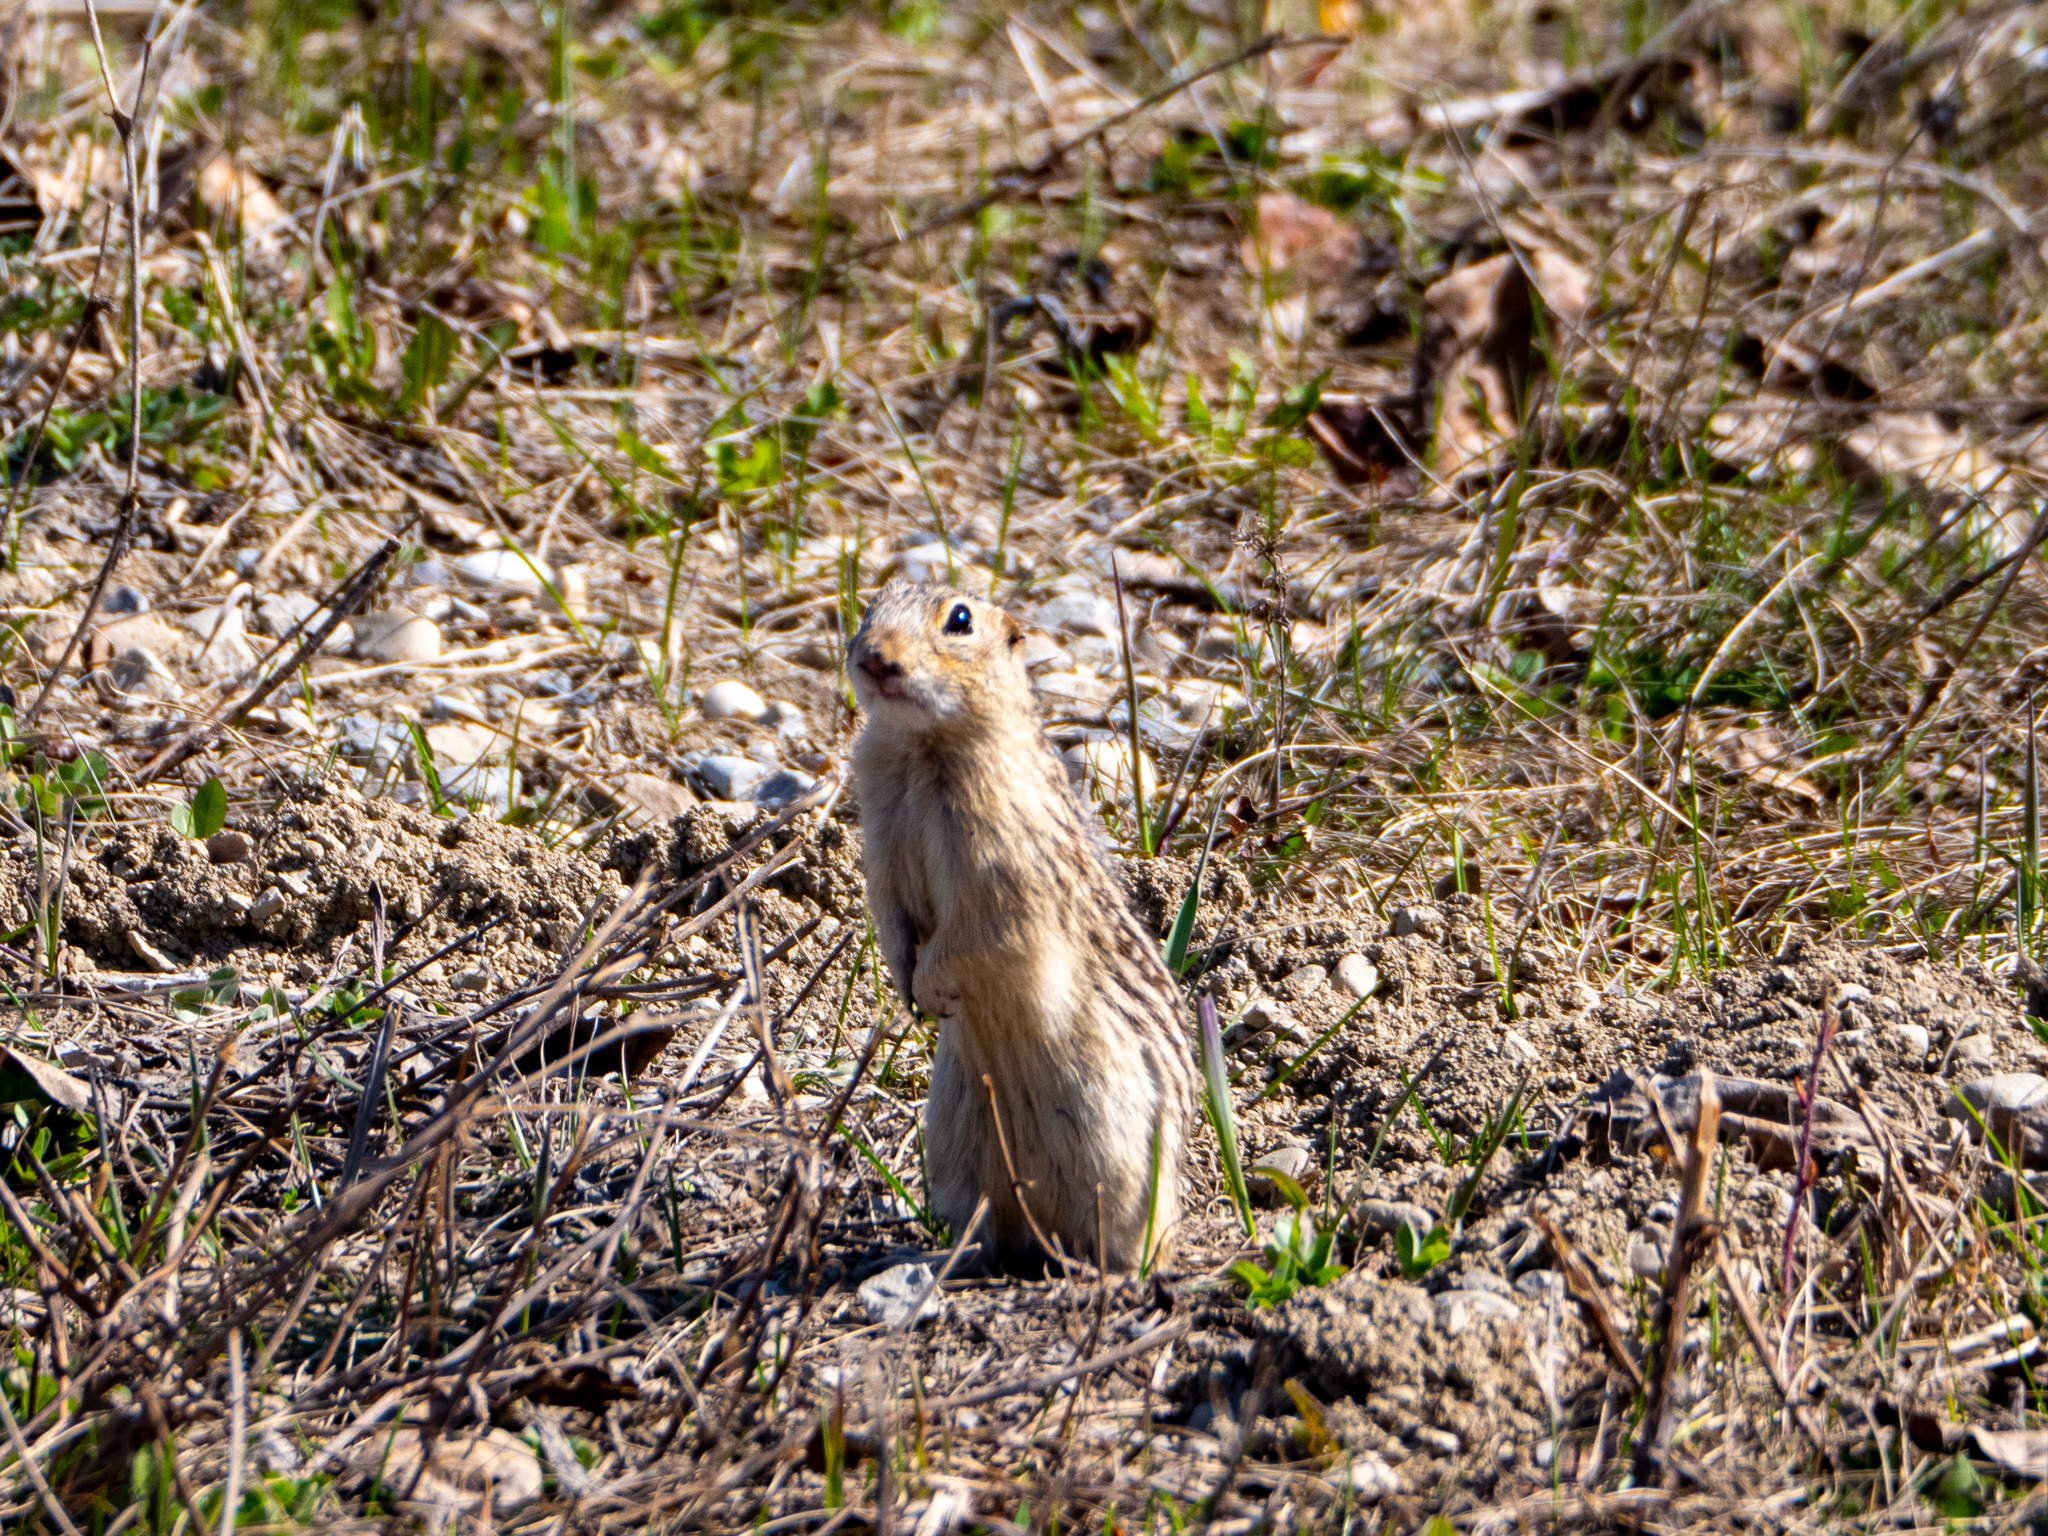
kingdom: Animalia
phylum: Chordata
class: Mammalia
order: Rodentia
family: Sciuridae
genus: Ictidomys
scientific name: Ictidomys tridecemlineatus
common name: Thirteen-lined ground squirrel
